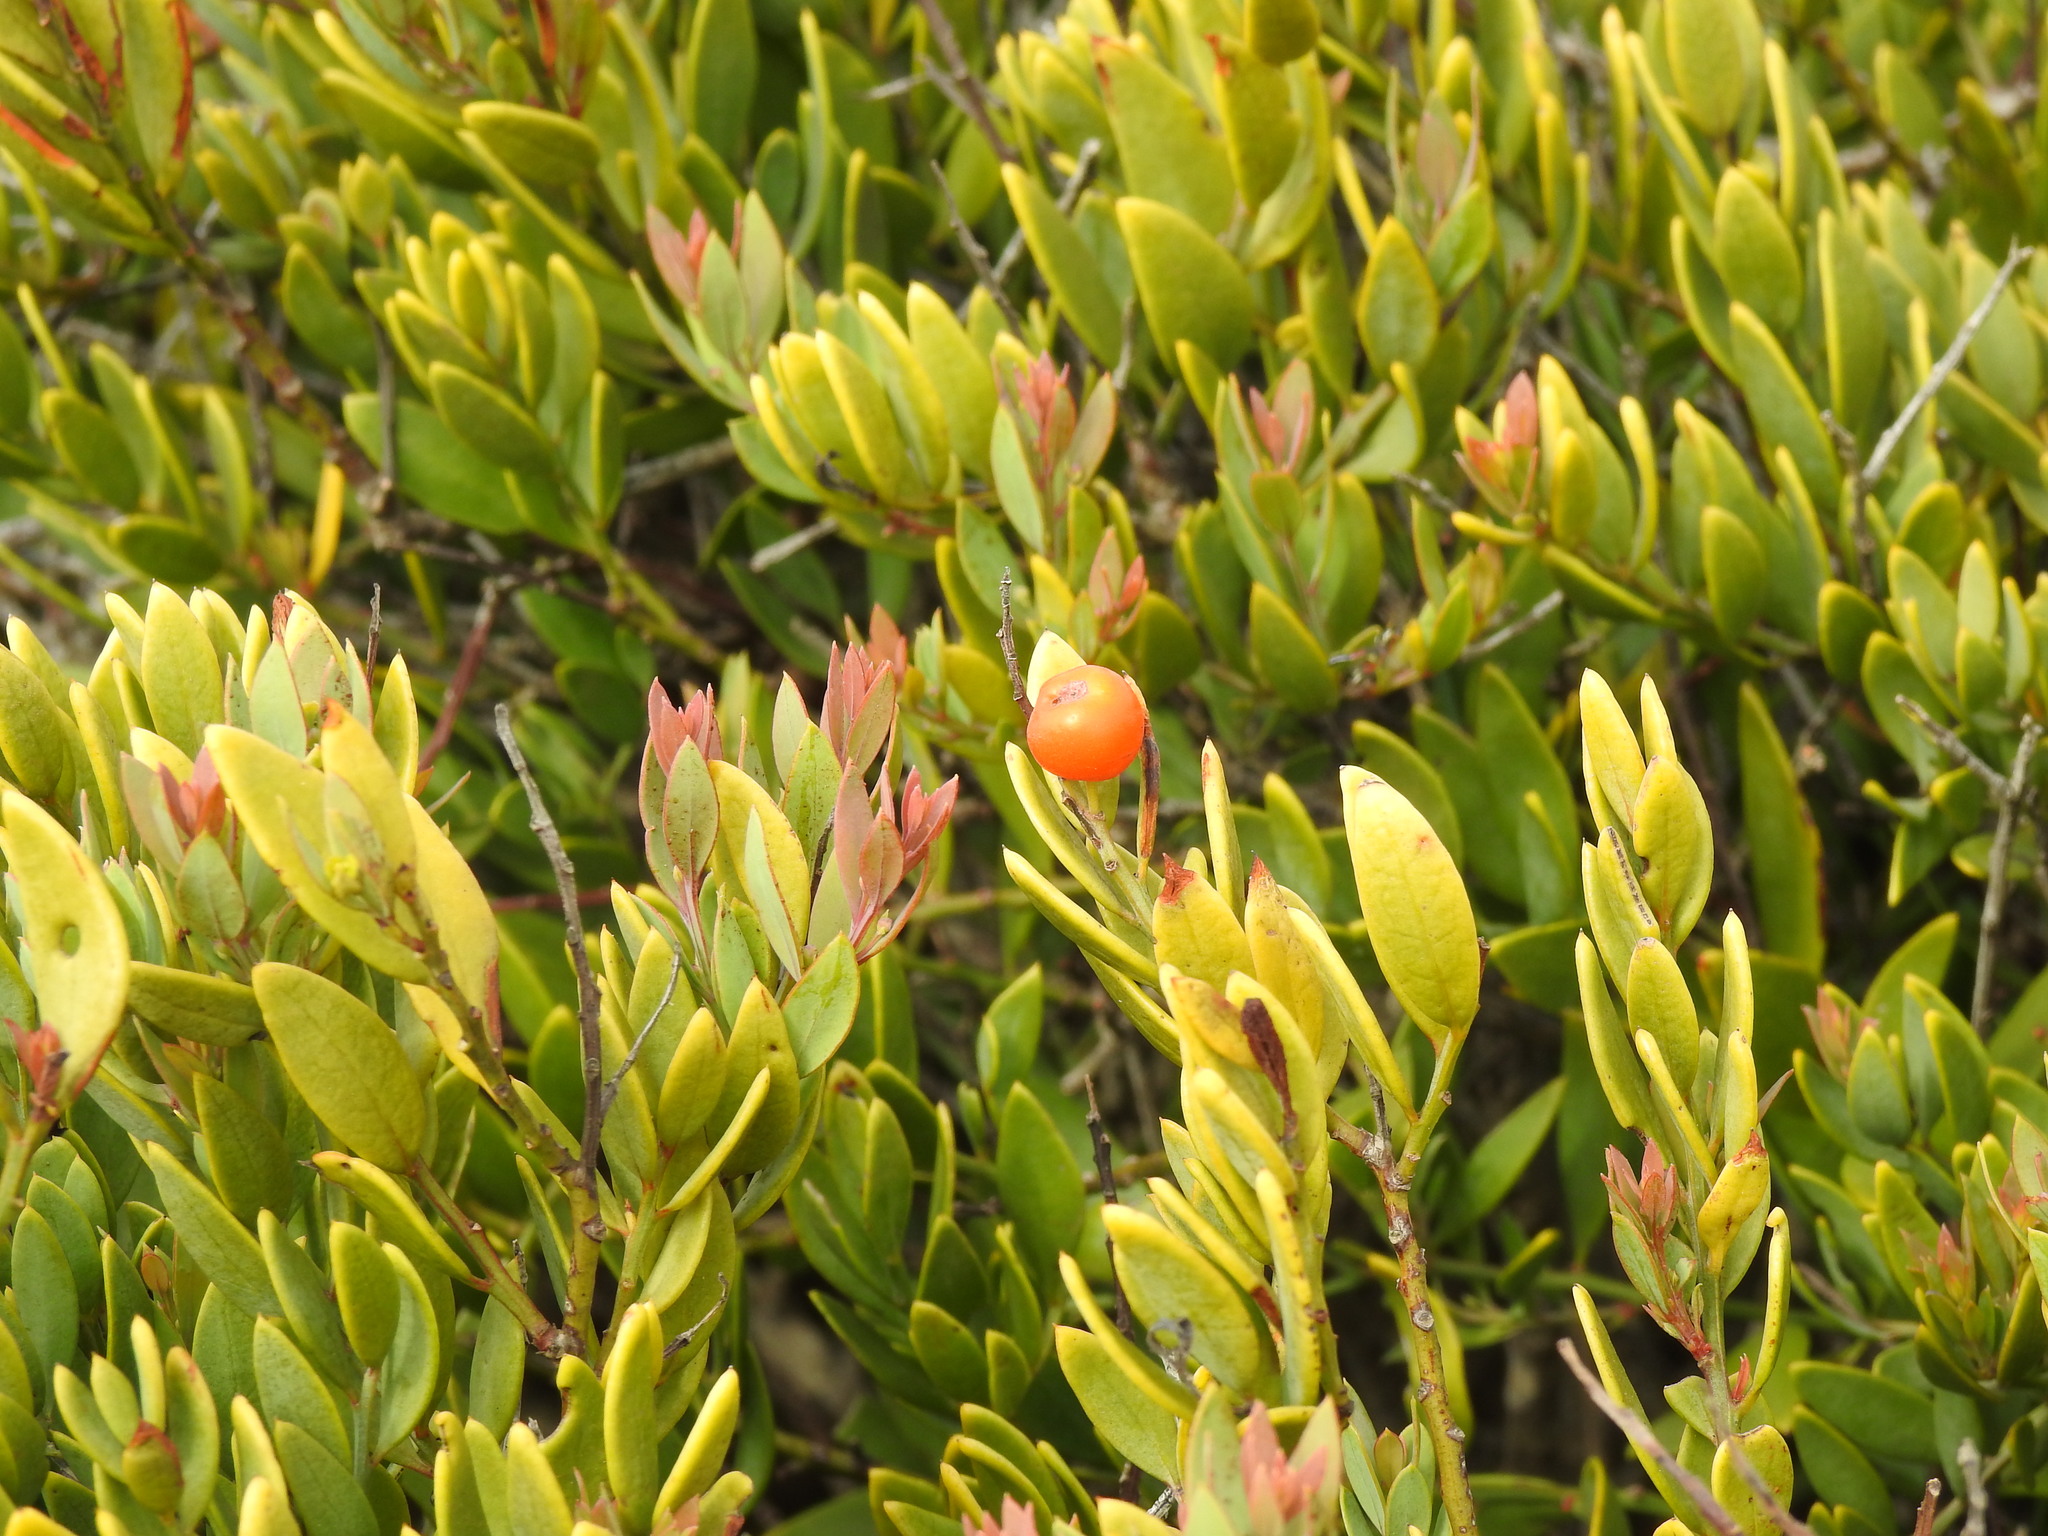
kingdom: Plantae
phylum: Tracheophyta
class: Magnoliopsida
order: Santalales
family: Santalaceae
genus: Osyris
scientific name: Osyris lanceolata
